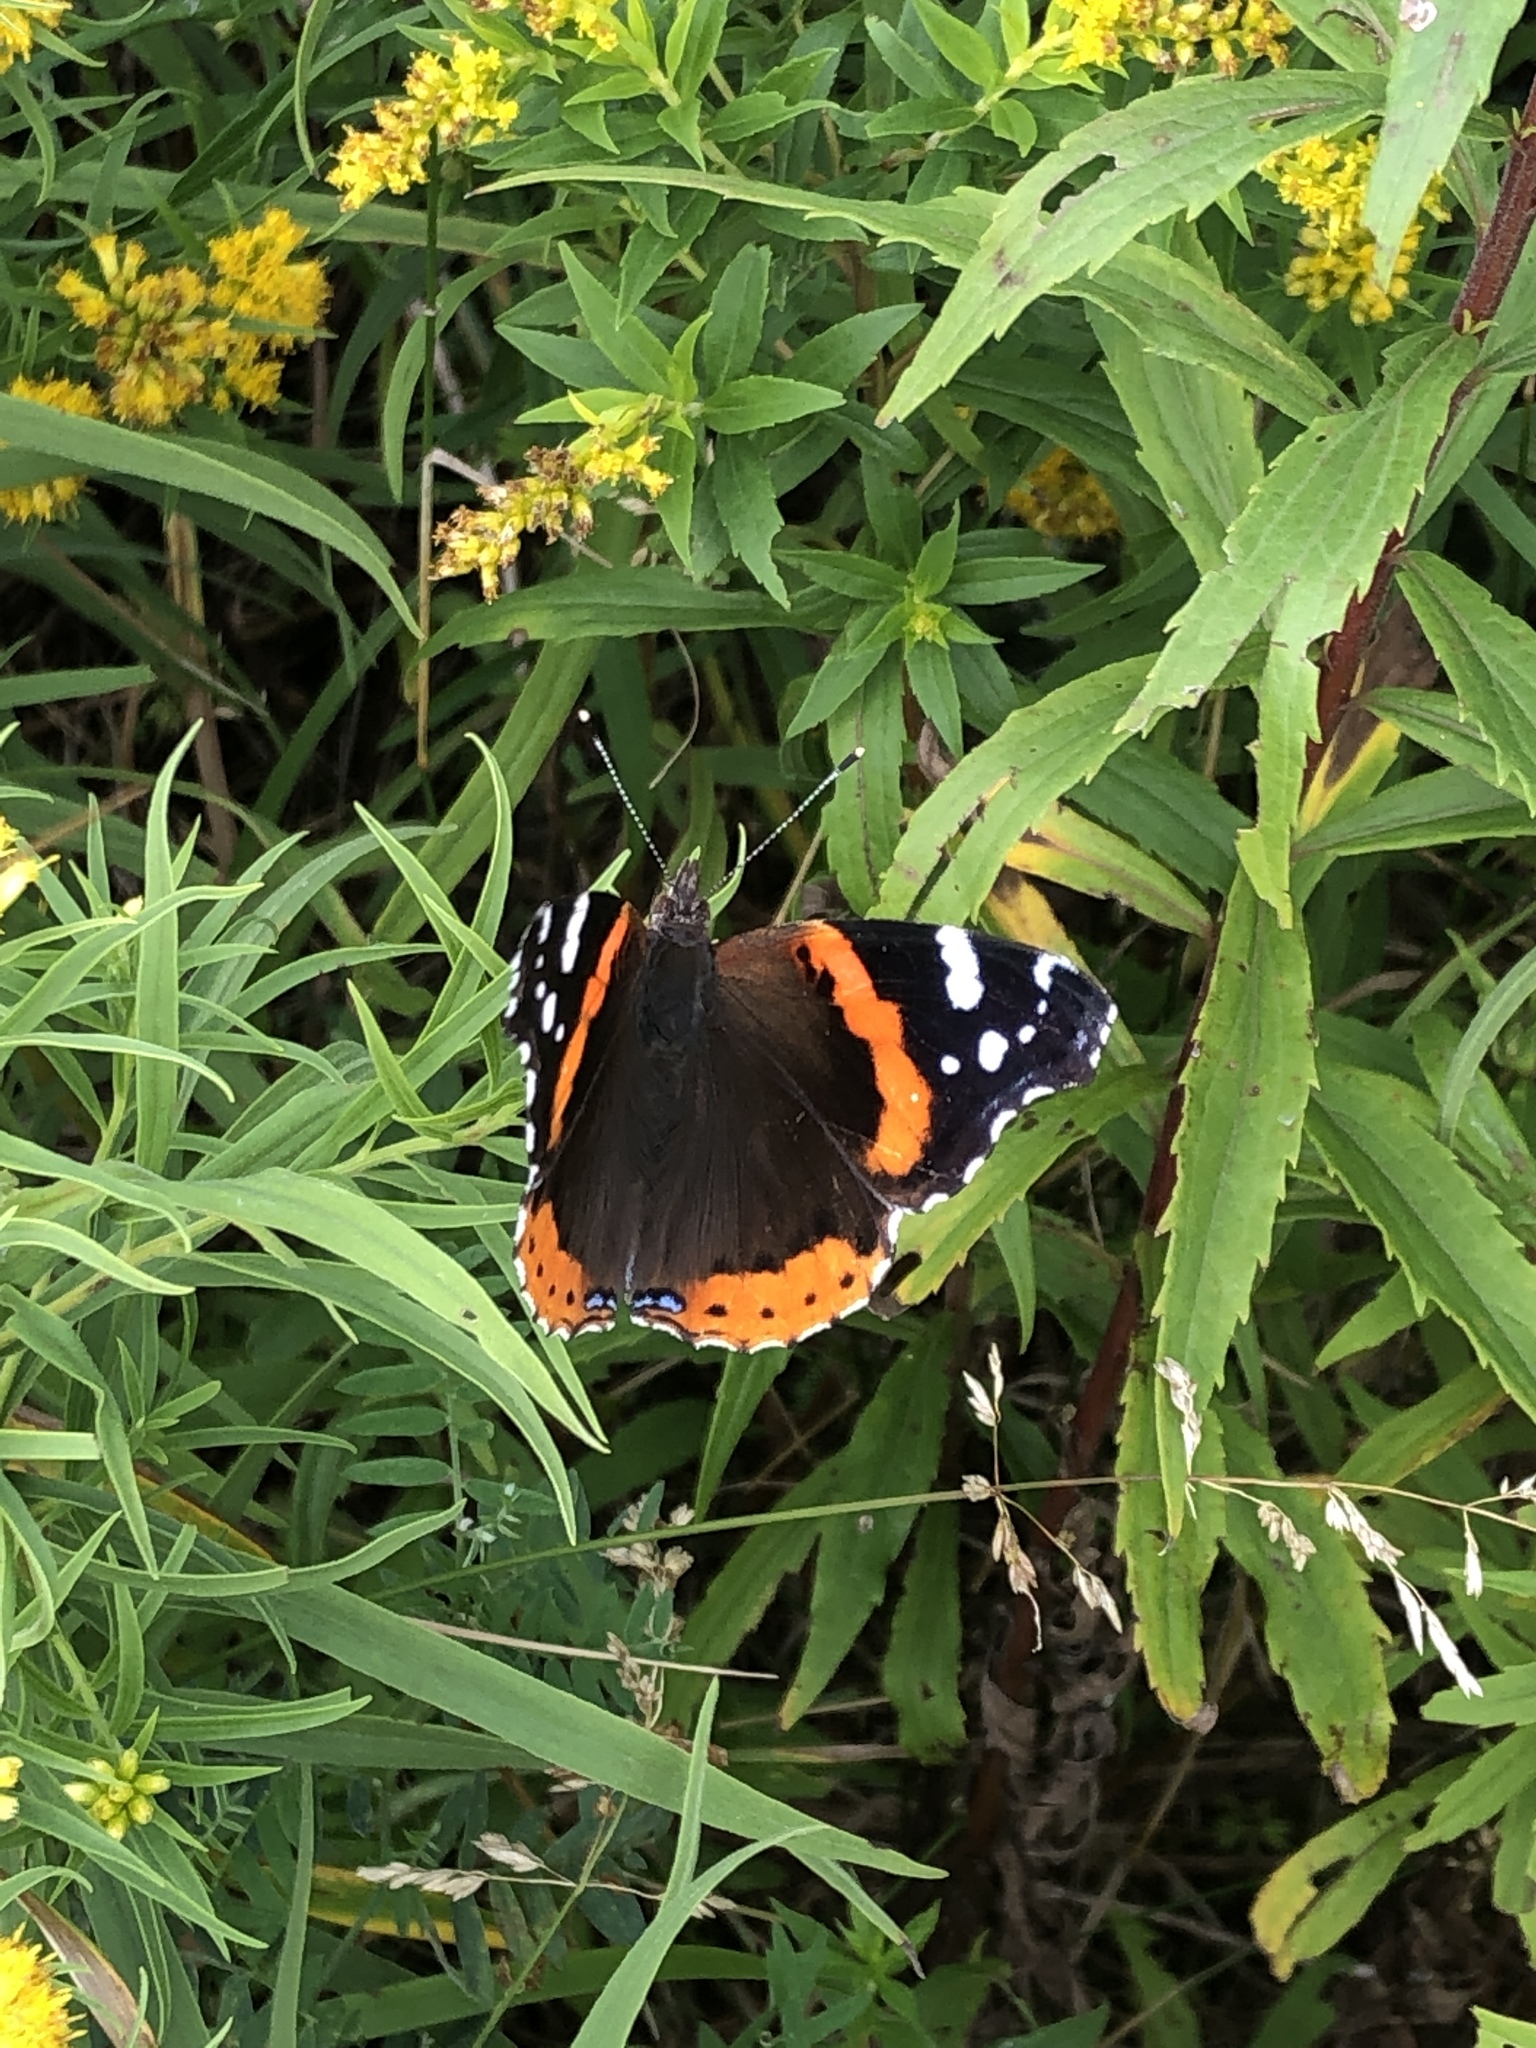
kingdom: Animalia
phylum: Arthropoda
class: Insecta
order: Lepidoptera
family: Nymphalidae
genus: Vanessa
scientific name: Vanessa atalanta
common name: Red admiral
